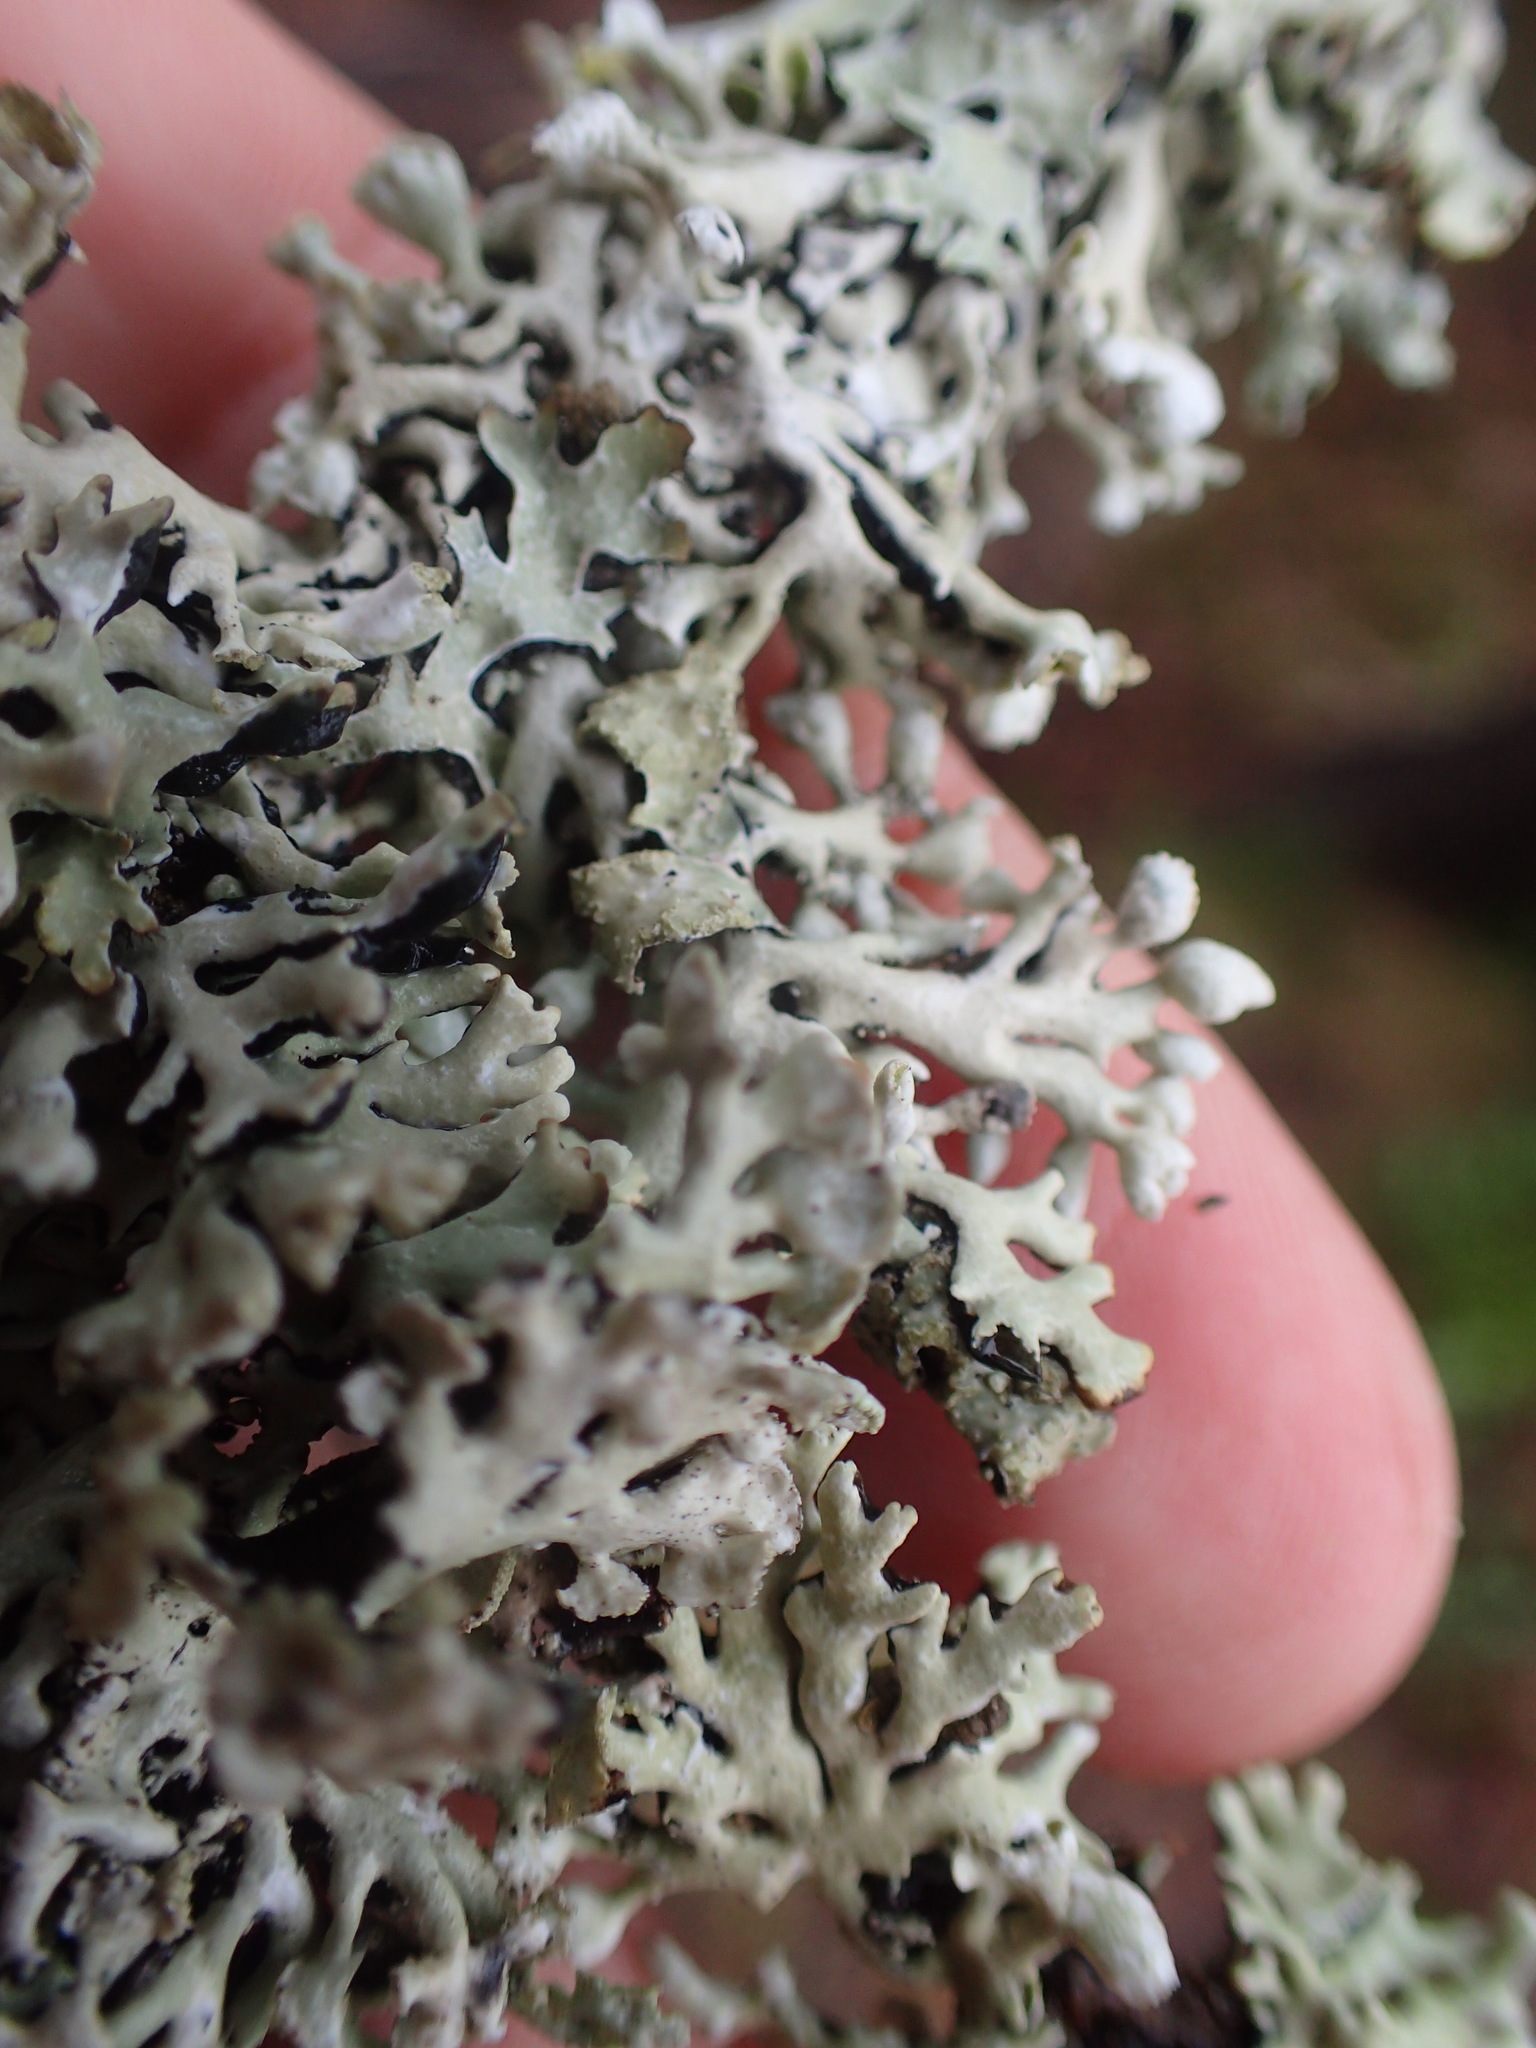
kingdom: Fungi
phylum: Ascomycota
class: Lecanoromycetes
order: Lecanorales
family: Parmeliaceae
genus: Hypogymnia
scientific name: Hypogymnia physodes
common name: Dark crottle
